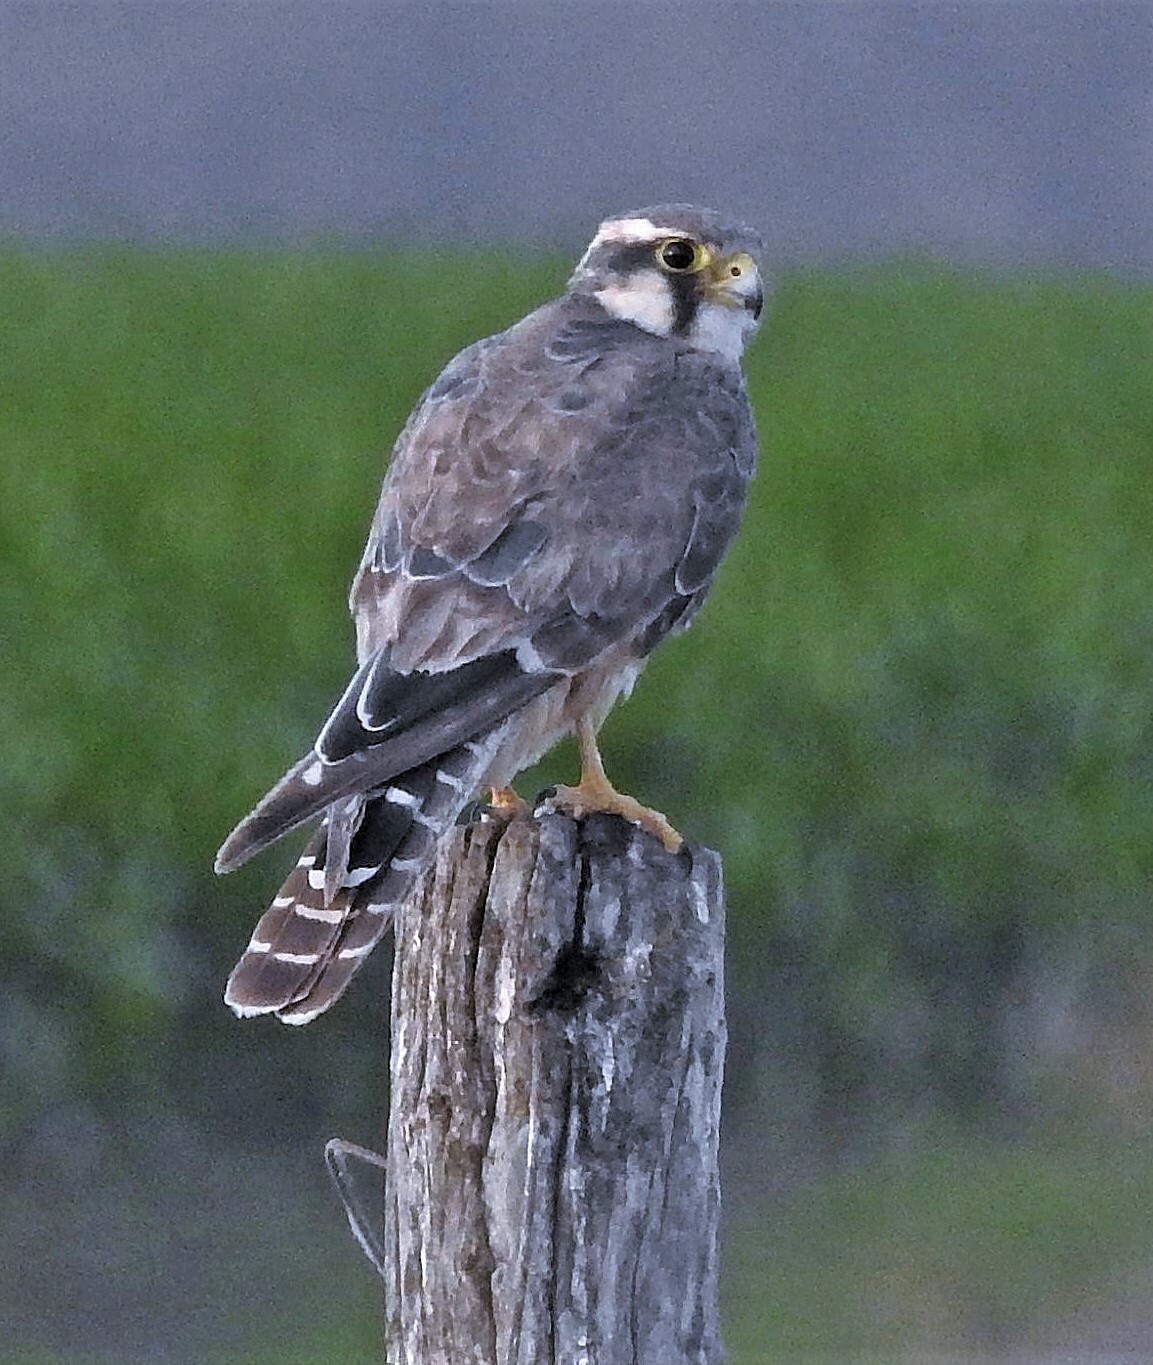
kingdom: Animalia
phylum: Chordata
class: Aves
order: Falconiformes
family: Falconidae
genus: Falco
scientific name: Falco femoralis
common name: Aplomado falcon
